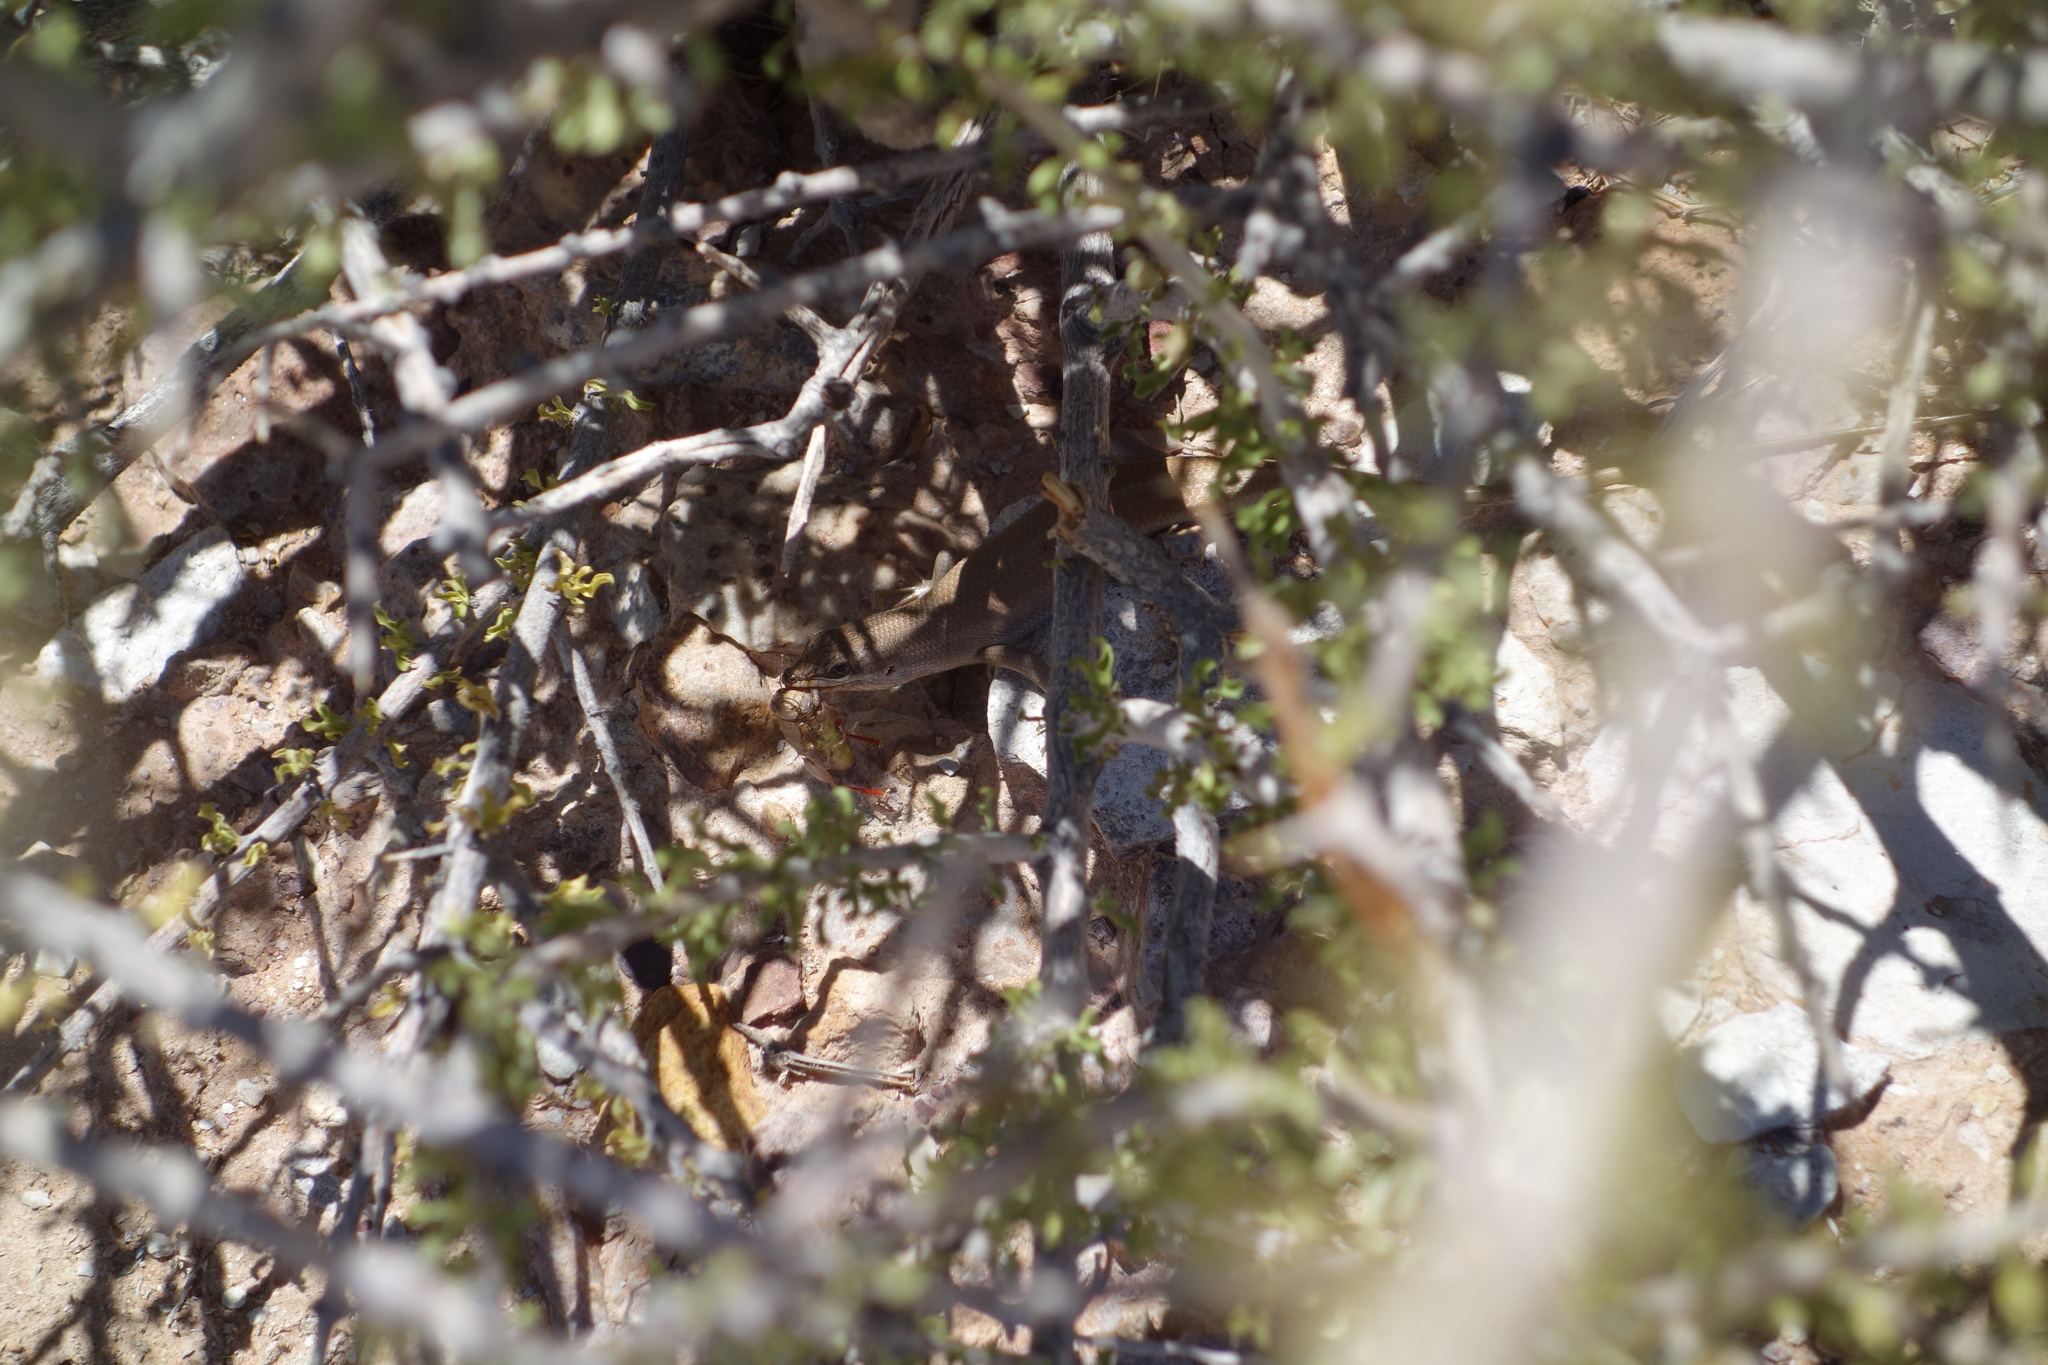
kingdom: Animalia
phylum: Chordata
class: Squamata
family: Scincidae
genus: Trachylepis
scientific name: Trachylepis sulcata
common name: Western rock skink
